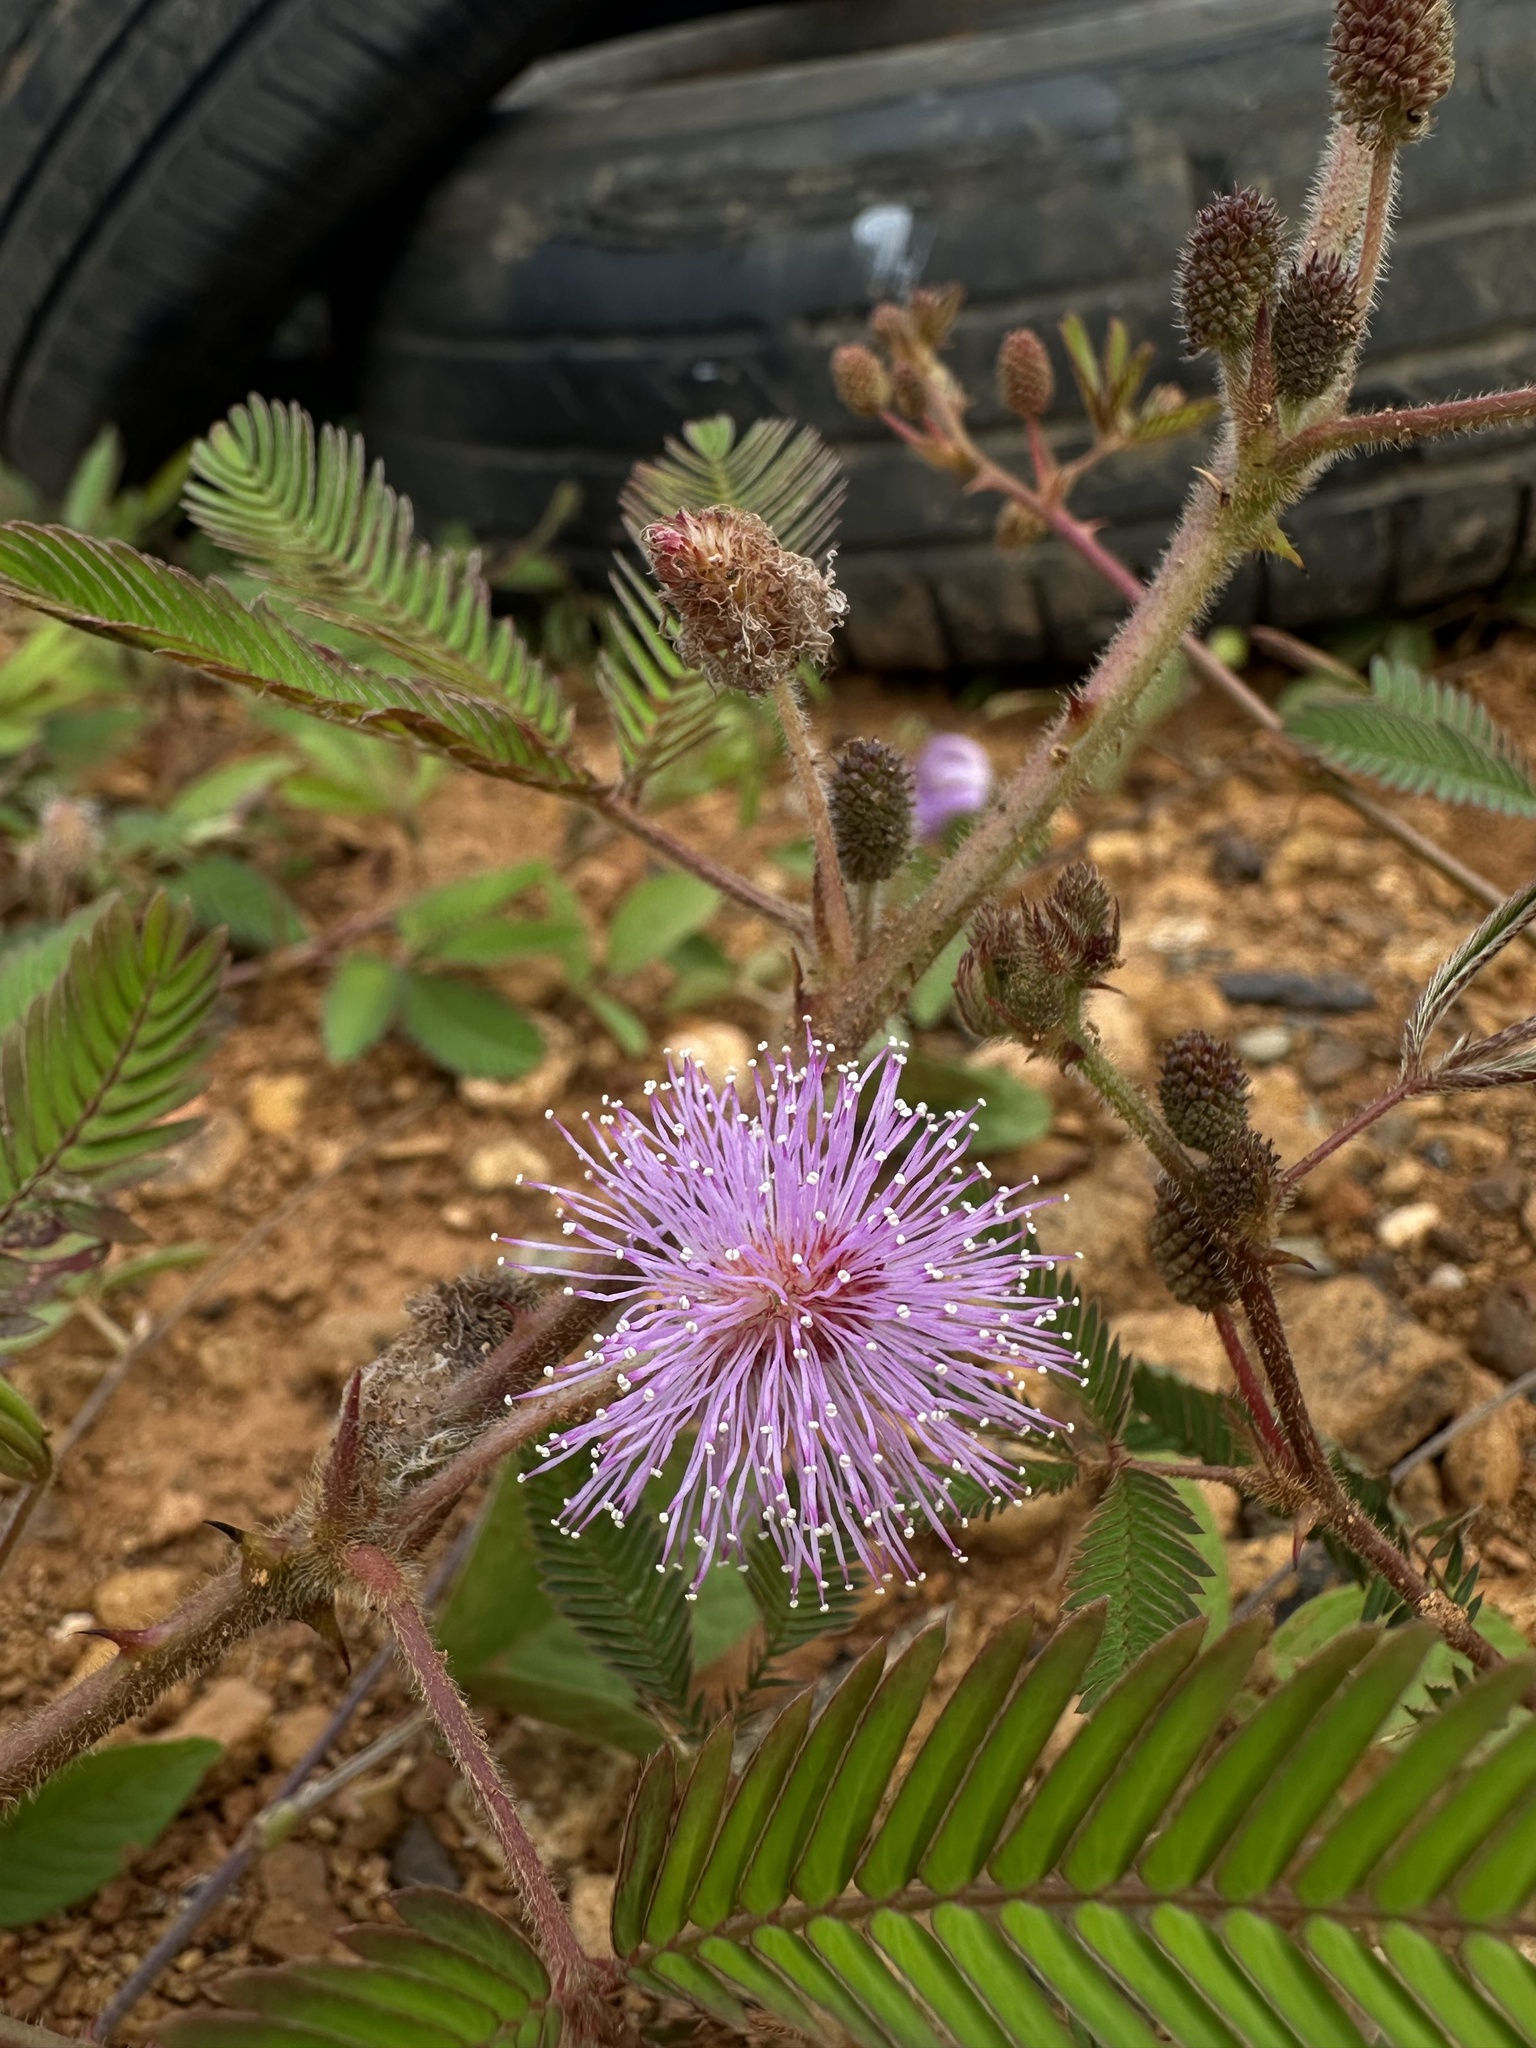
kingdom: Plantae
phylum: Tracheophyta
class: Magnoliopsida
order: Fabales
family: Fabaceae
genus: Mimosa
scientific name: Mimosa pudica
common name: Sensitive plant
